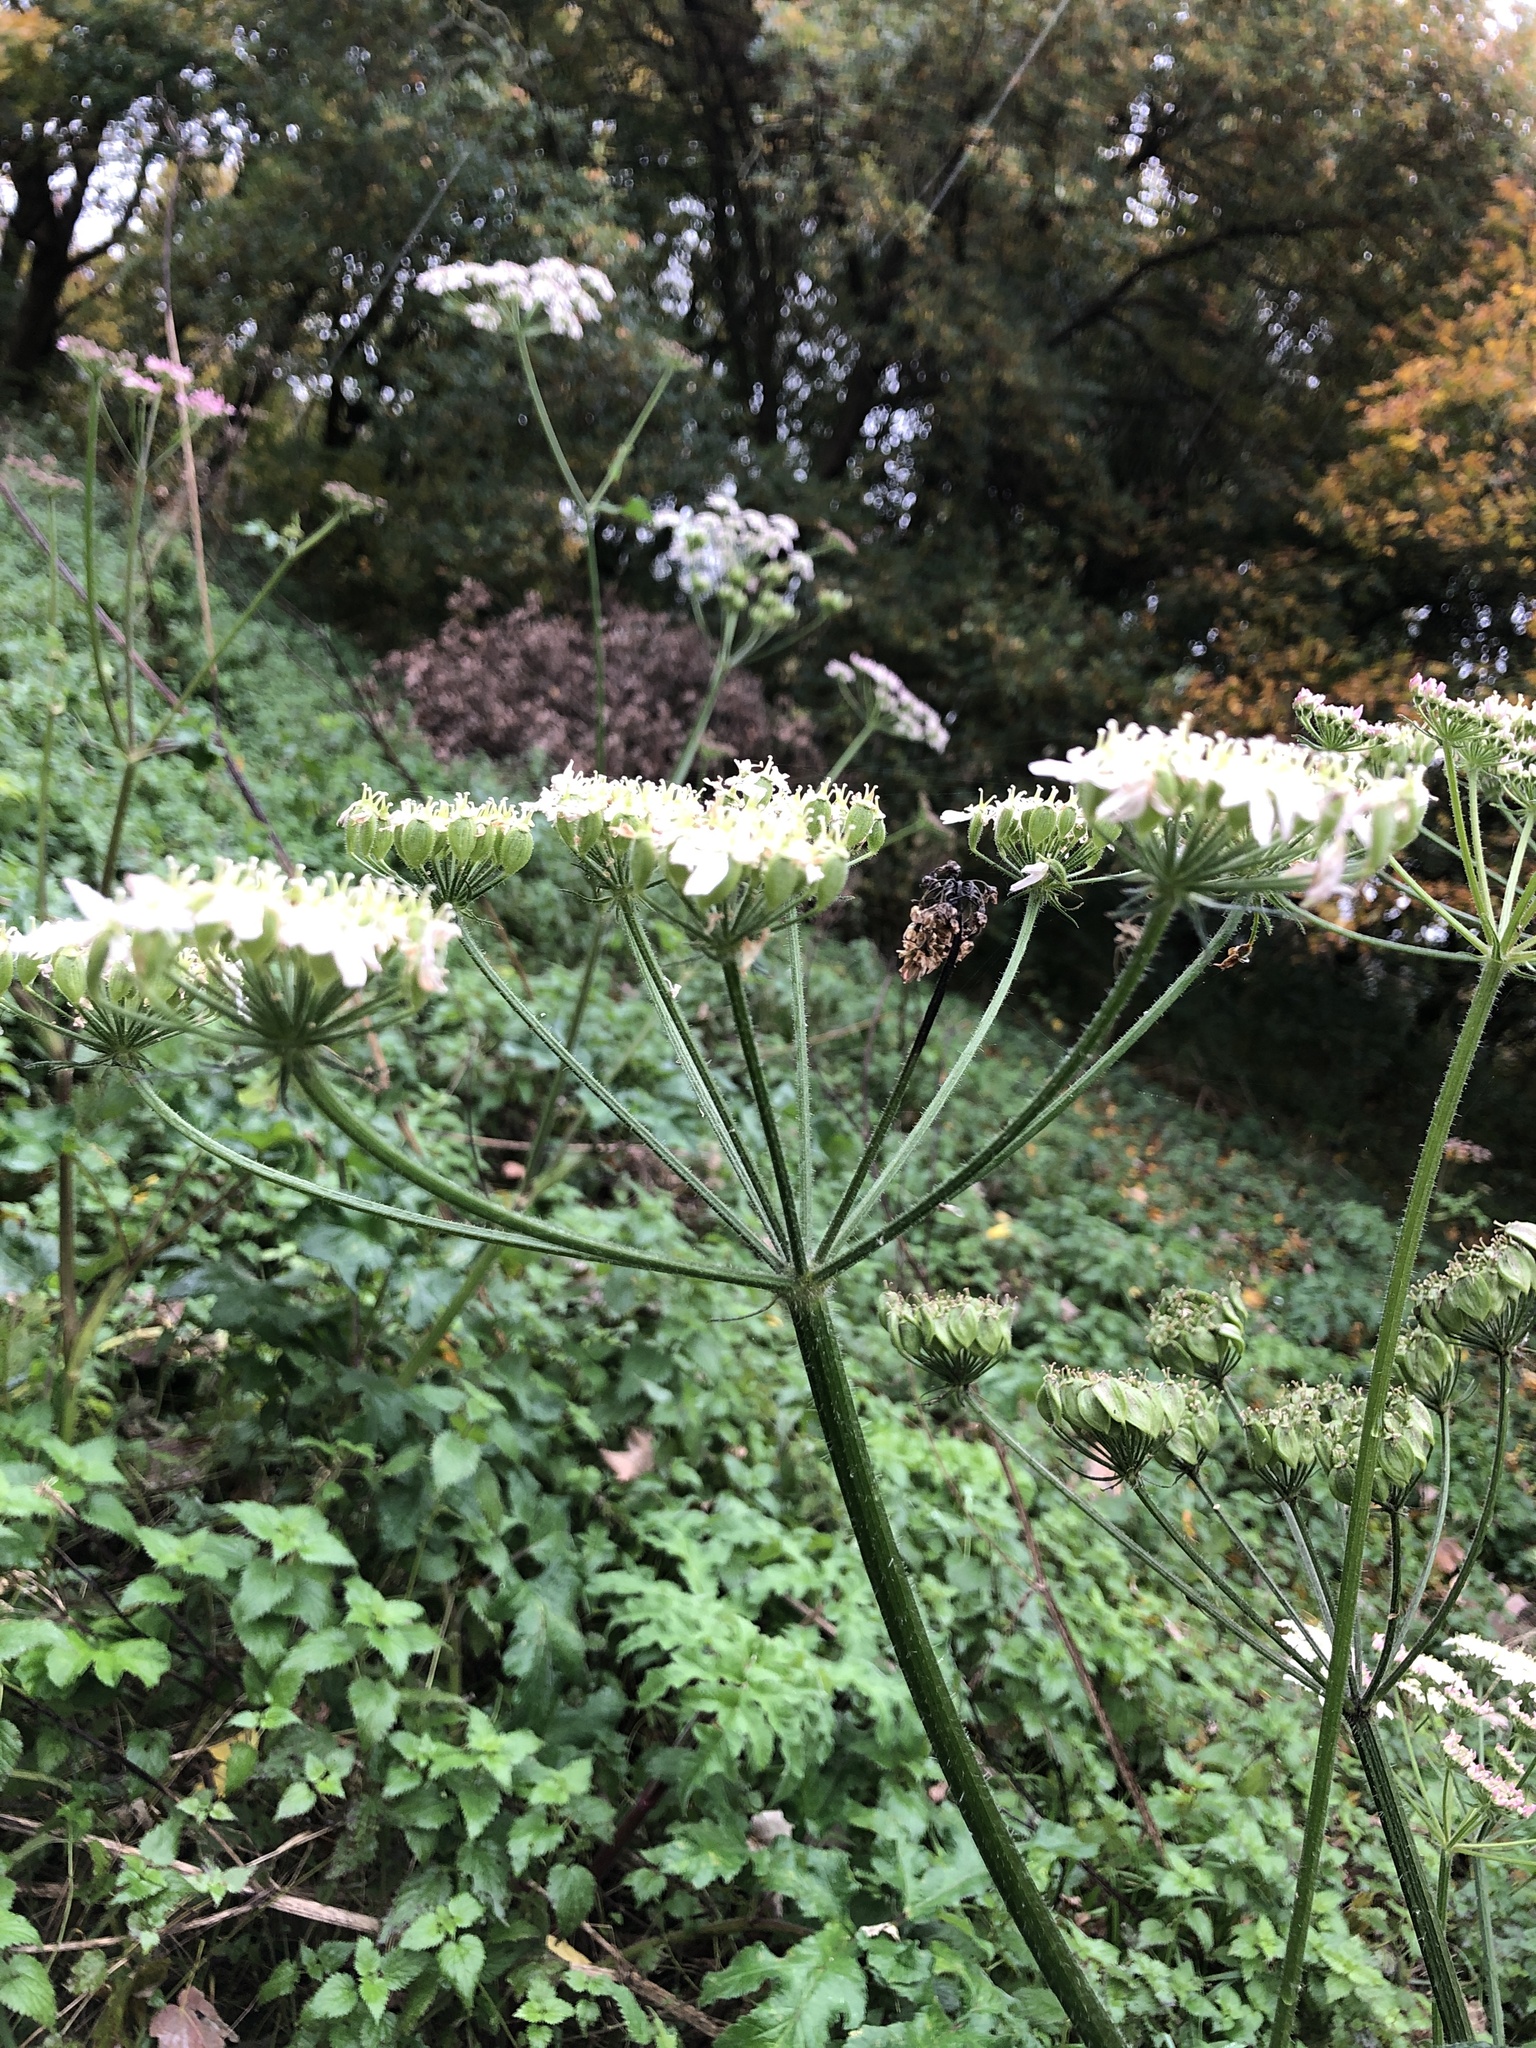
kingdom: Plantae
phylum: Tracheophyta
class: Magnoliopsida
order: Apiales
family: Apiaceae
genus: Heracleum
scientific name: Heracleum sphondylium
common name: Hogweed
